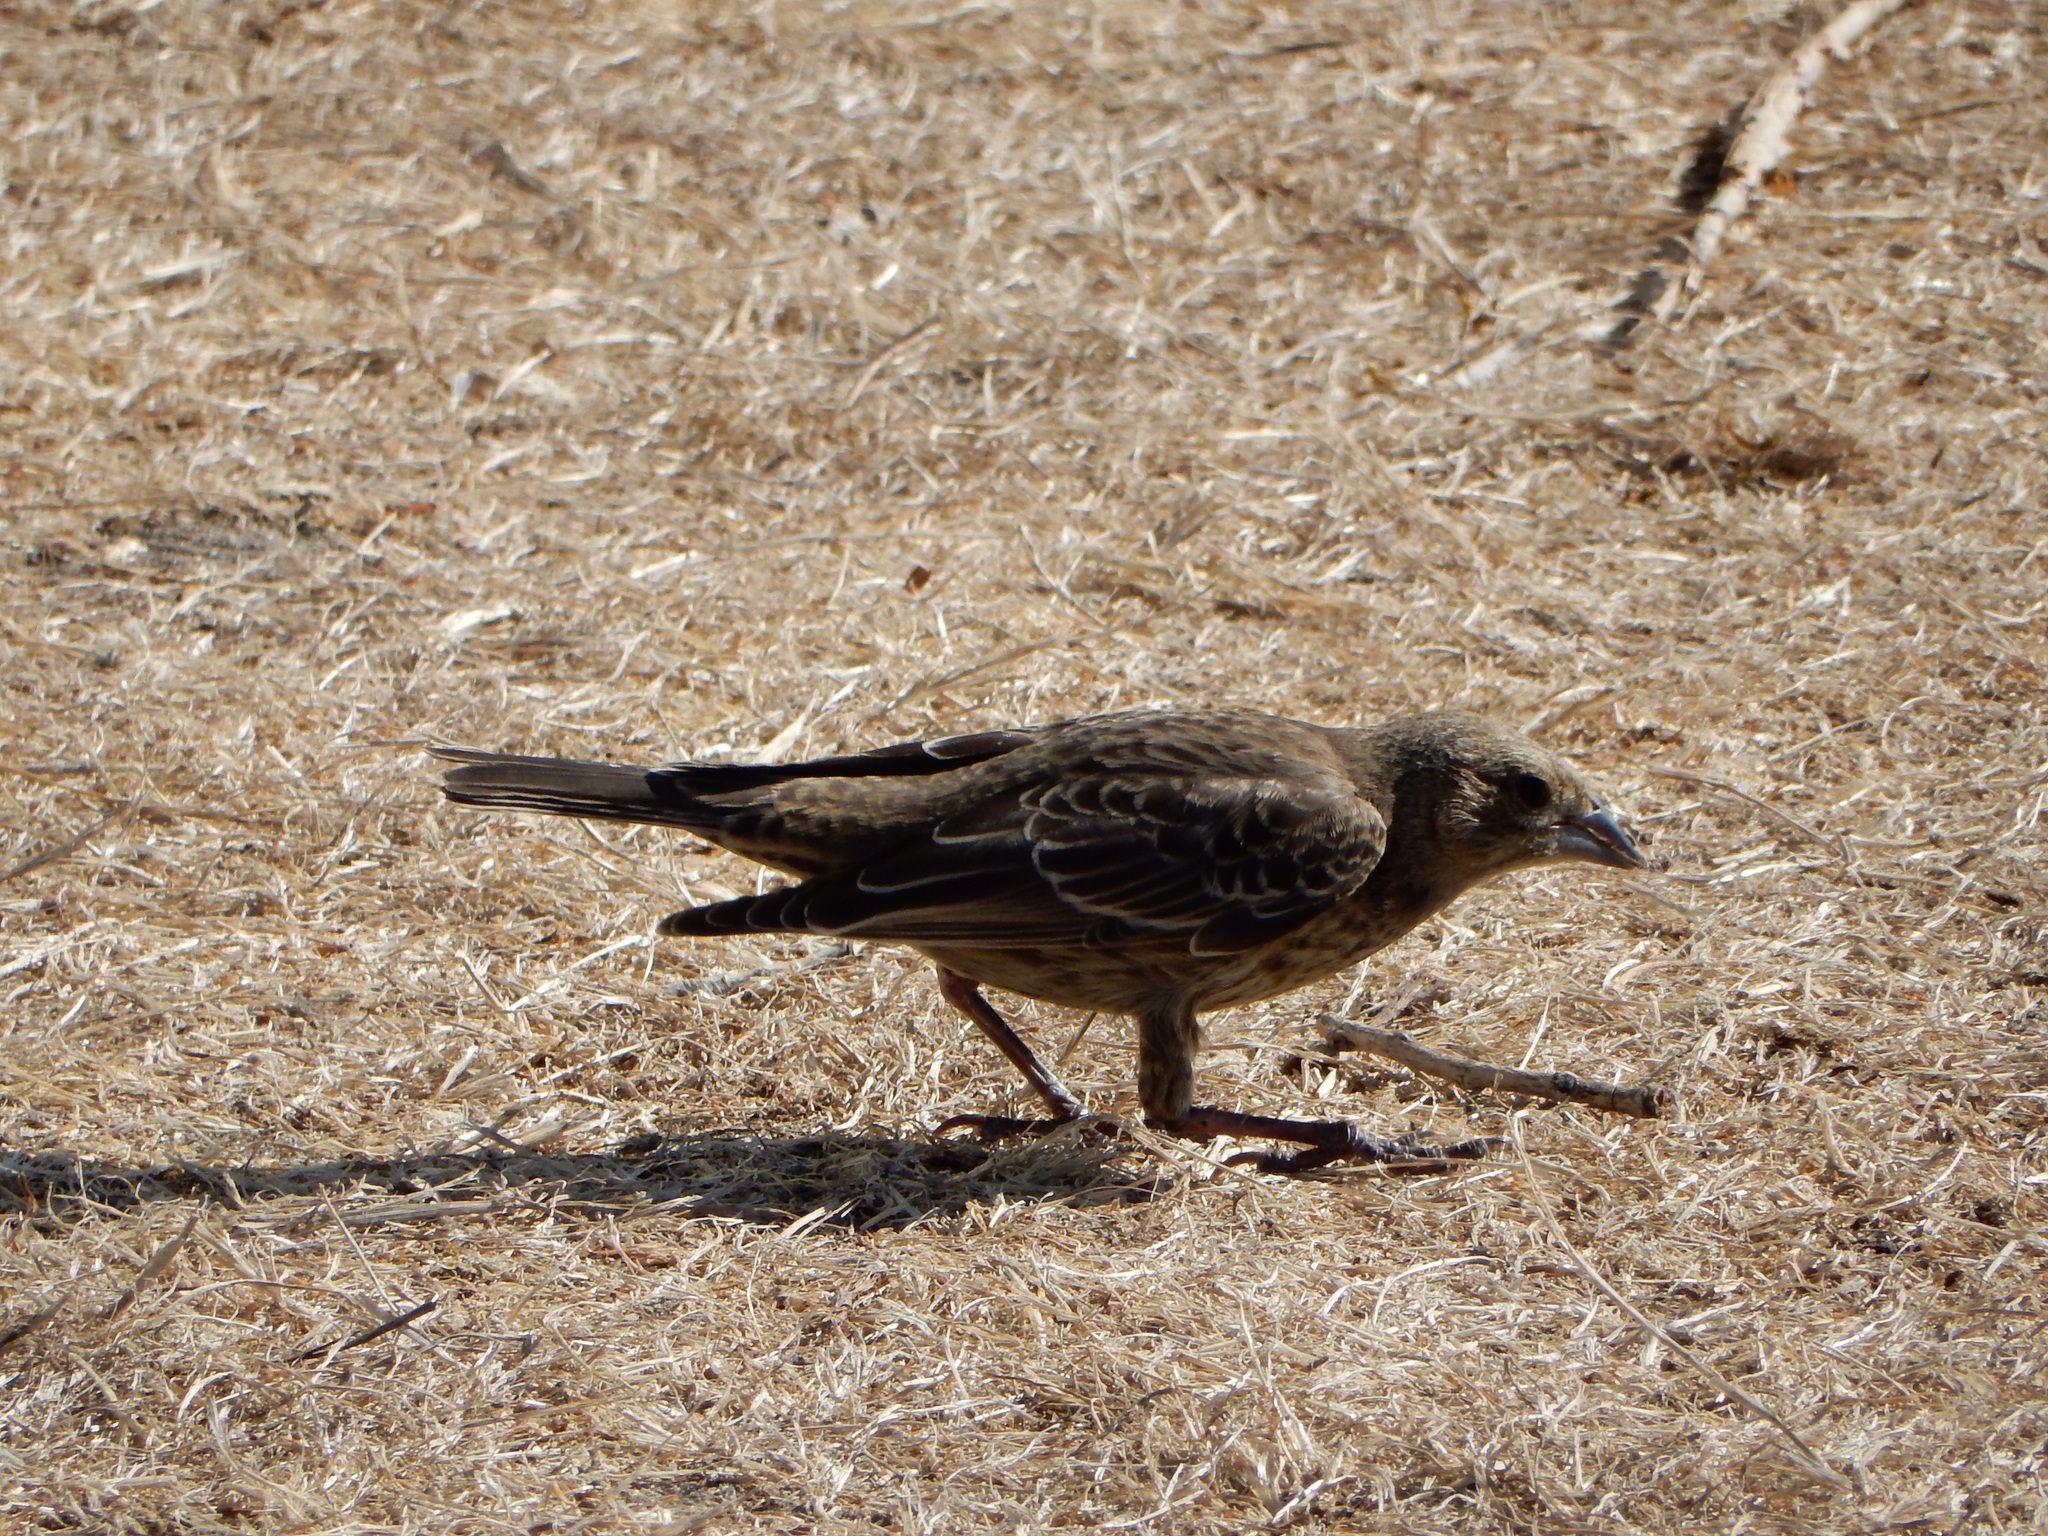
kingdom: Animalia
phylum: Chordata
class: Aves
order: Passeriformes
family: Icteridae
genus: Molothrus
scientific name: Molothrus ater
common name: Brown-headed cowbird
